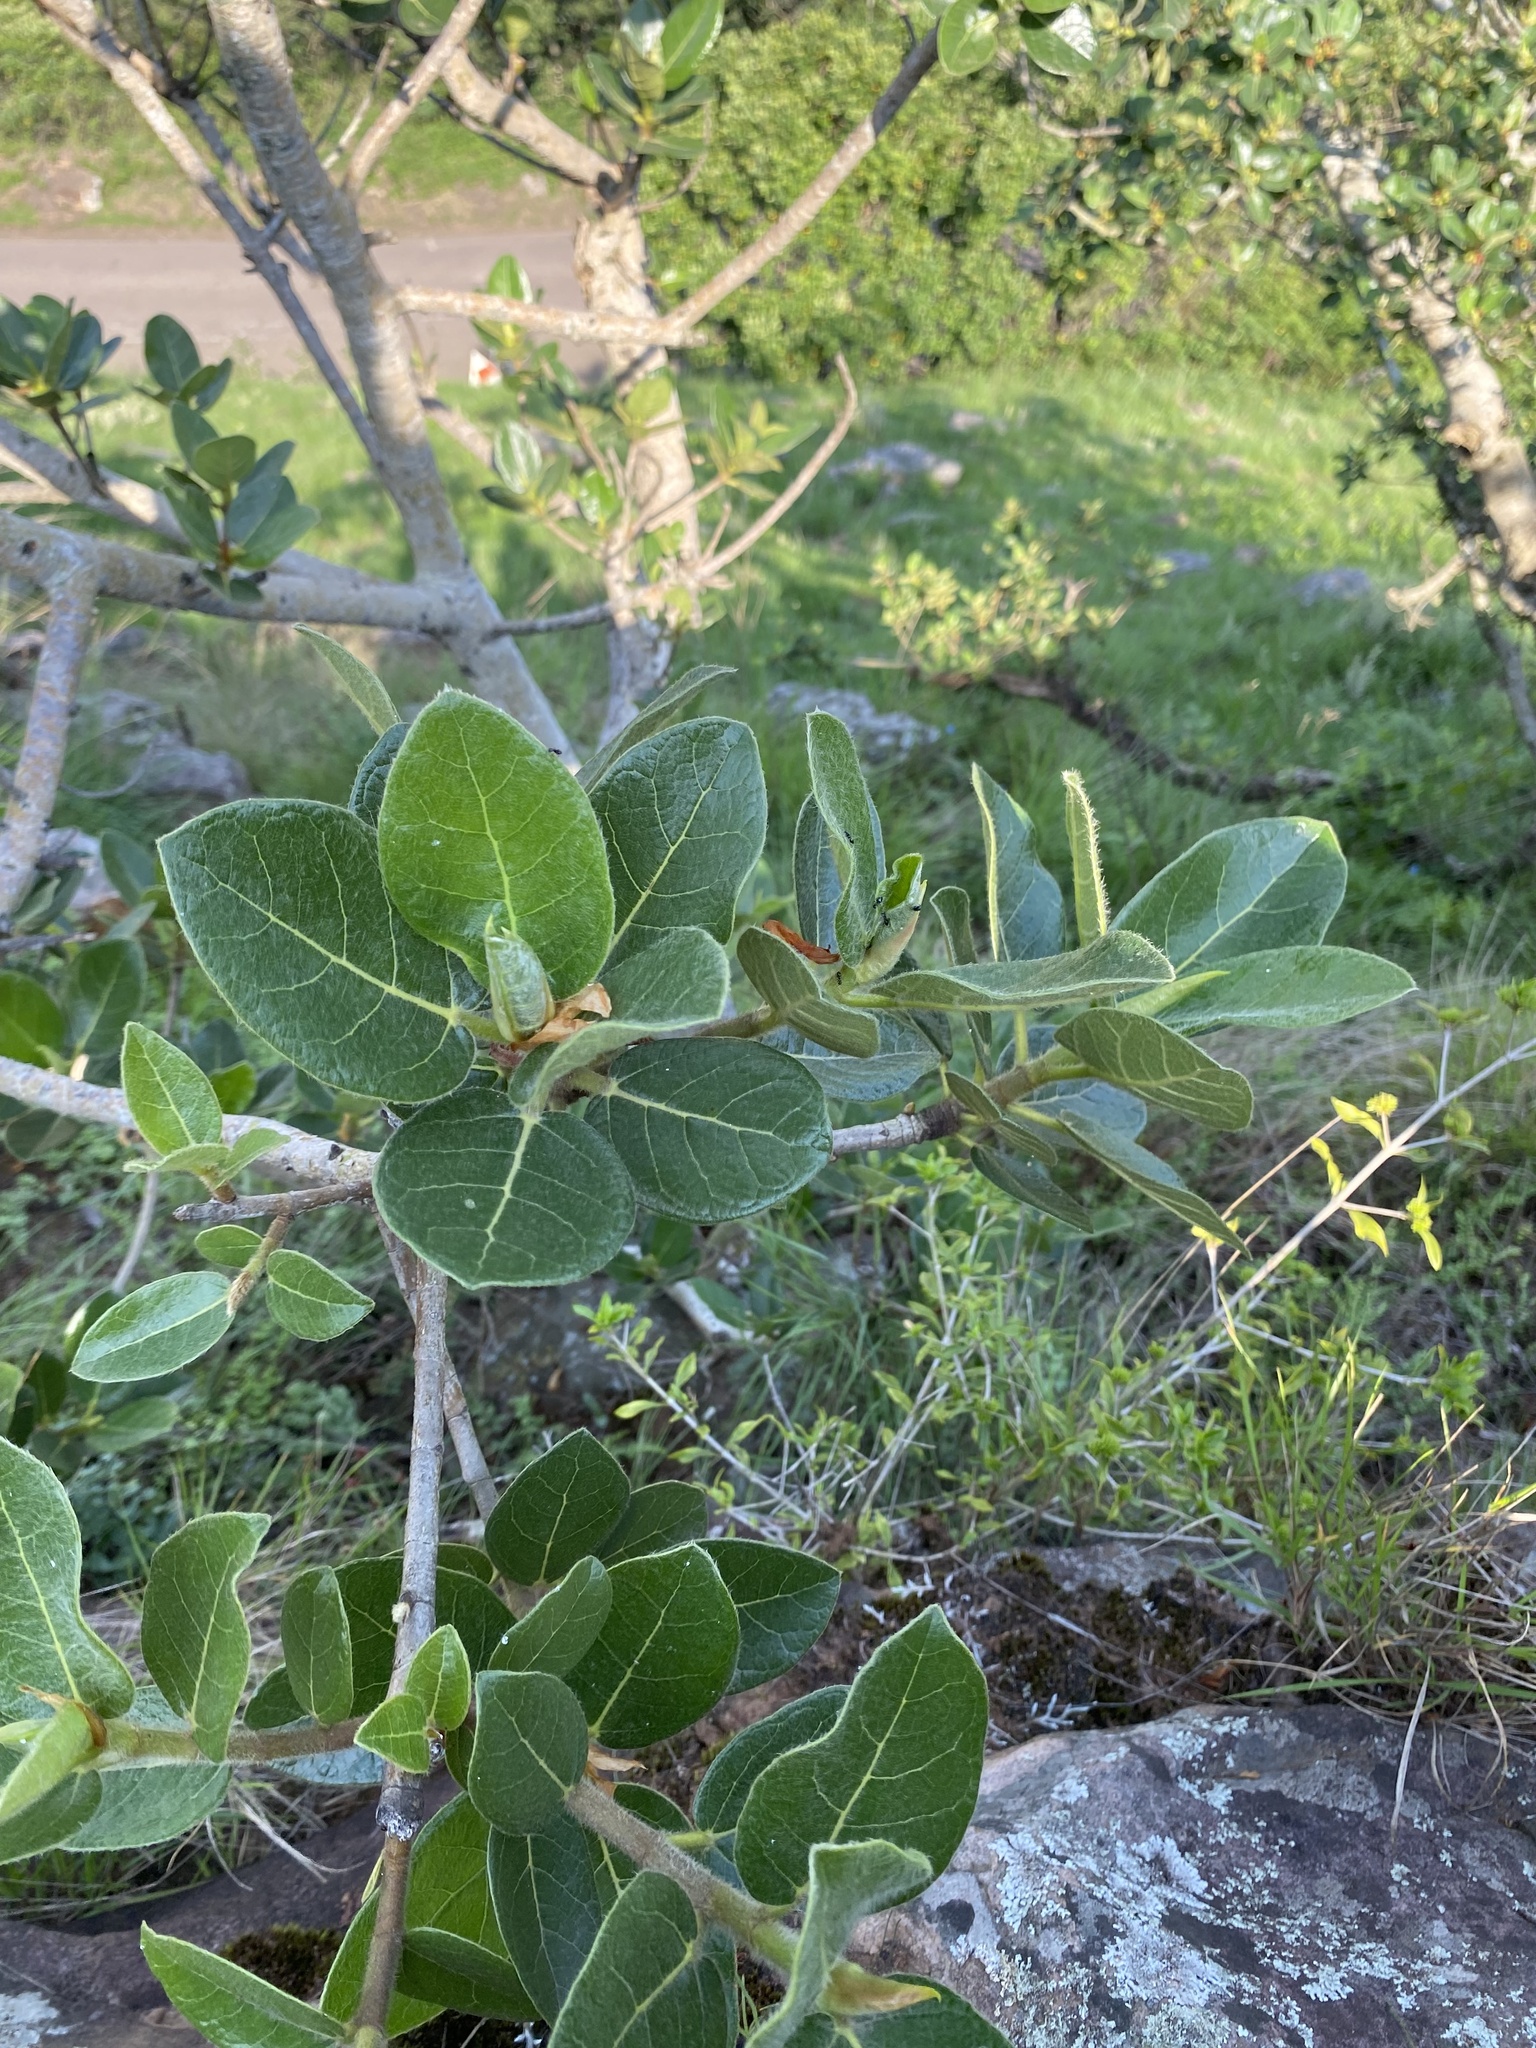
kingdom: Plantae
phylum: Tracheophyta
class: Magnoliopsida
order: Rosales
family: Moraceae
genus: Ficus
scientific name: Ficus glumosa
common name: Hairy rock fig
